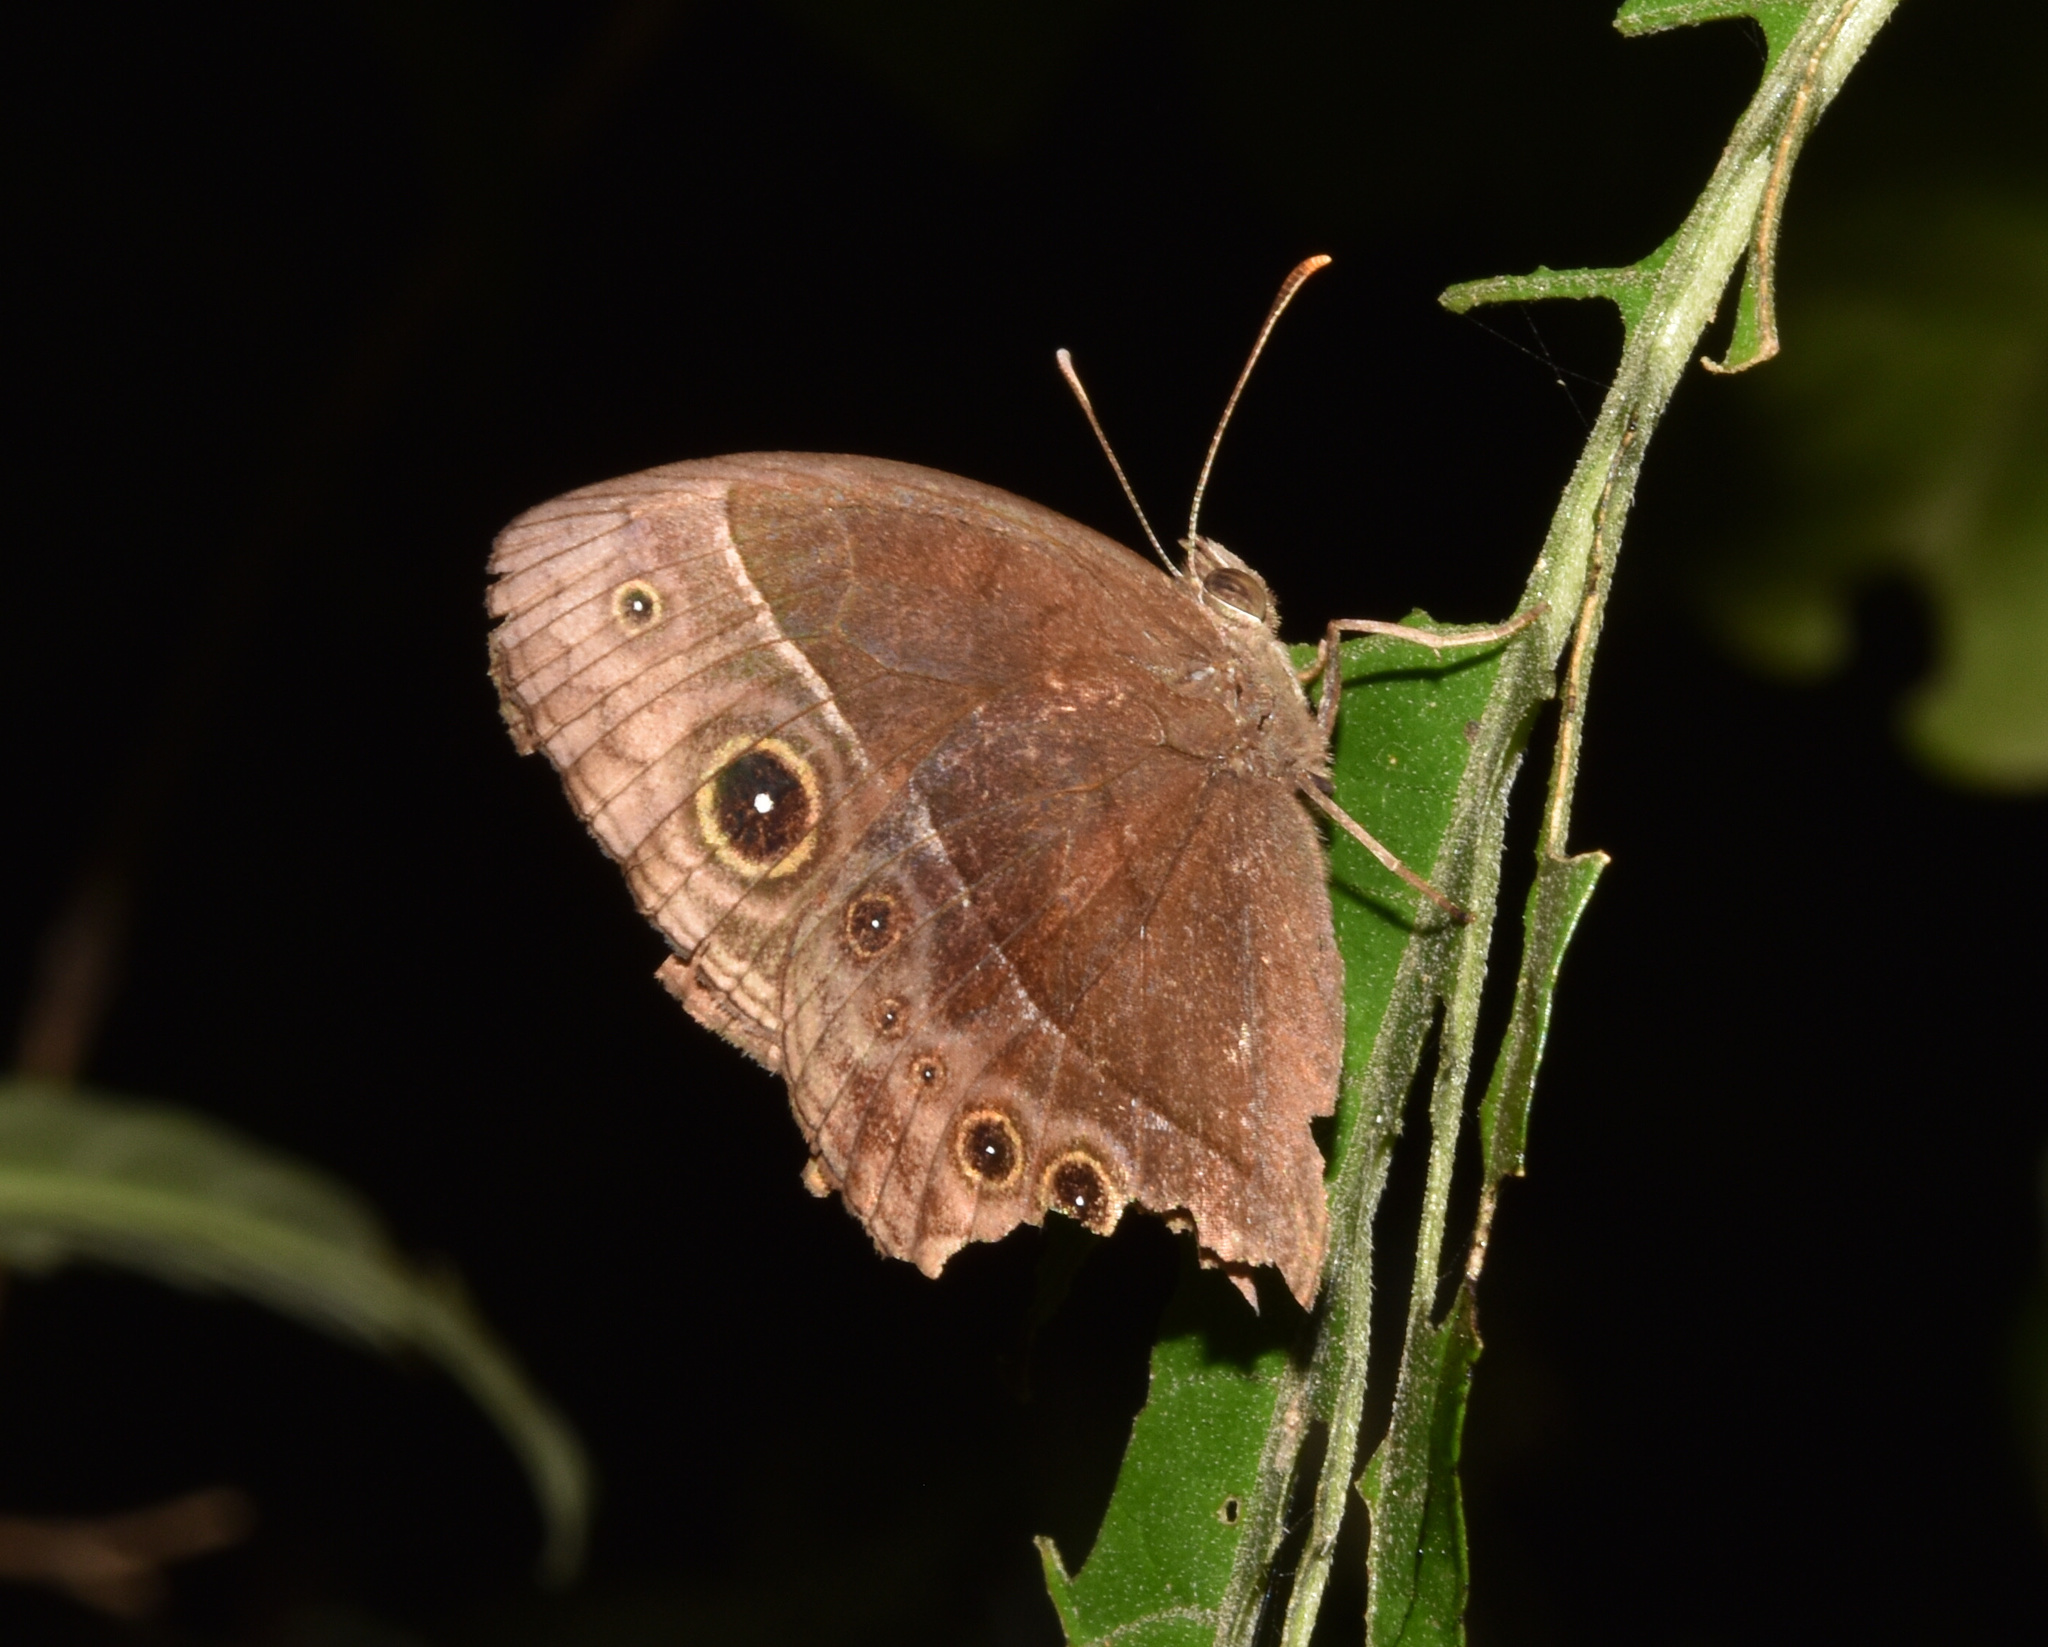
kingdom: Animalia
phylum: Arthropoda
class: Insecta
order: Lepidoptera
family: Nymphalidae
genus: Mycalesis
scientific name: Mycalesis rhacotis
